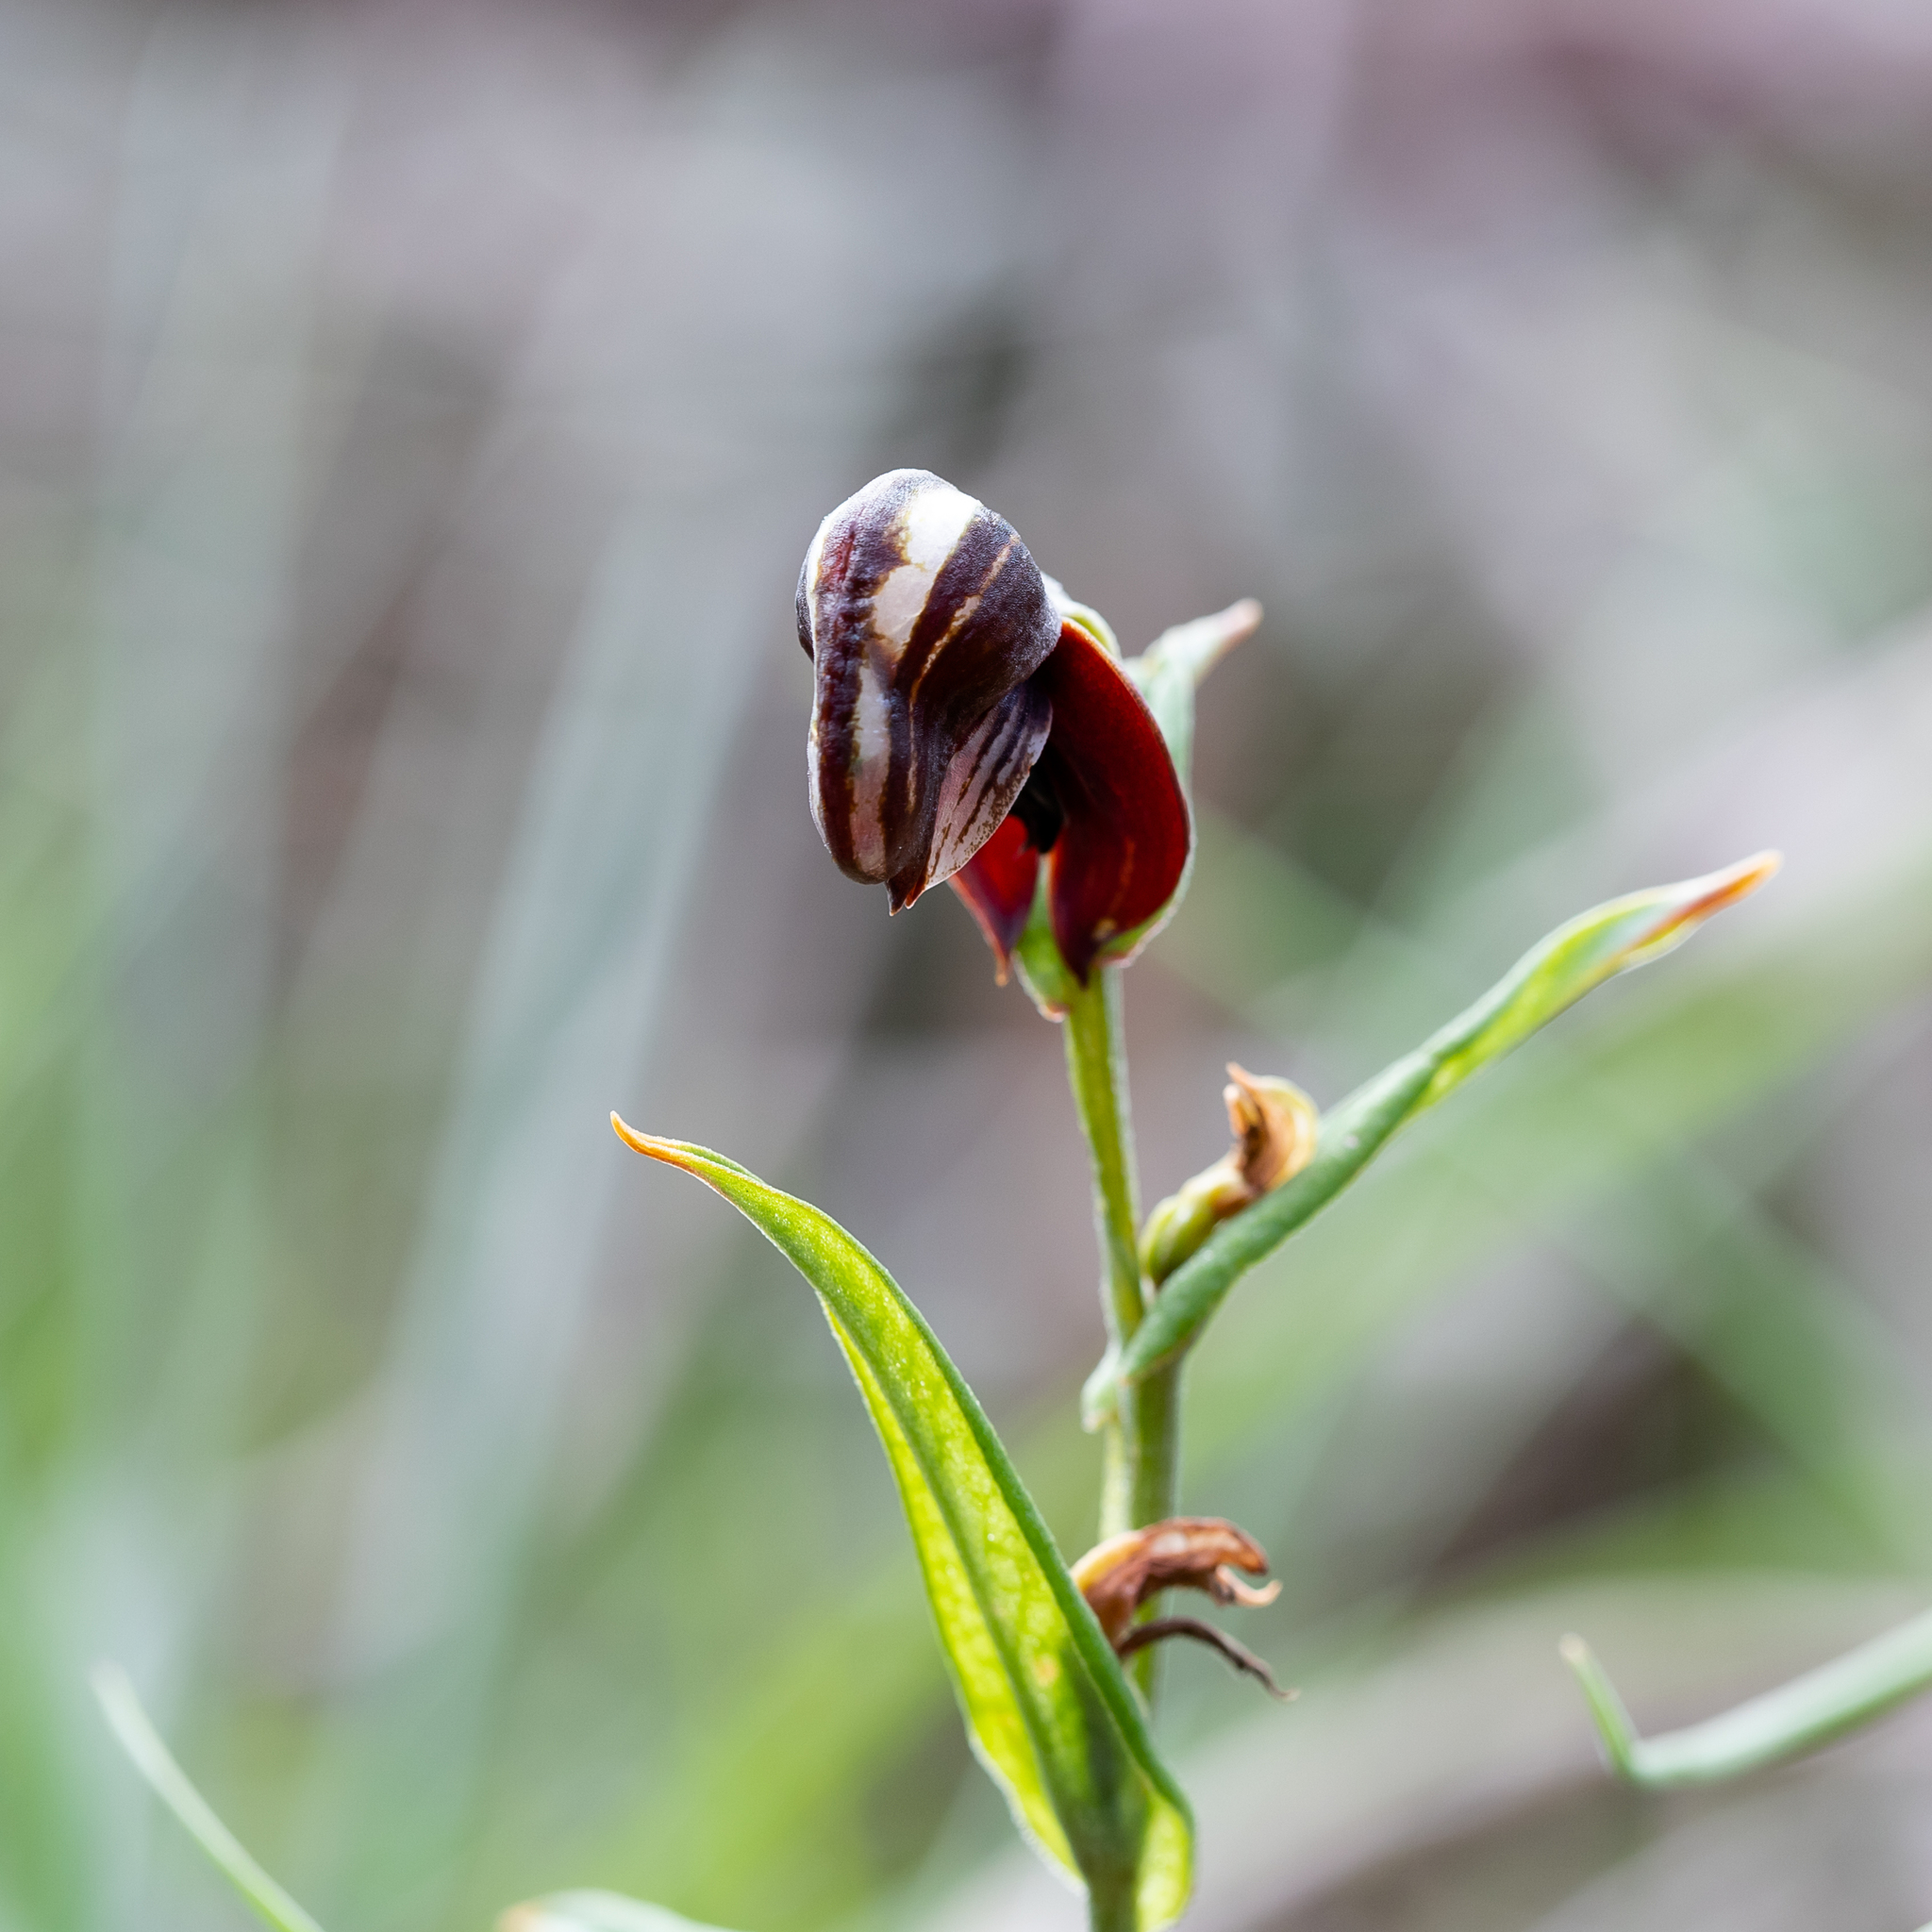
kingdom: Plantae
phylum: Tracheophyta
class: Liliopsida
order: Asparagales
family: Orchidaceae
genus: Pterostylis
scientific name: Pterostylis sanguinea
